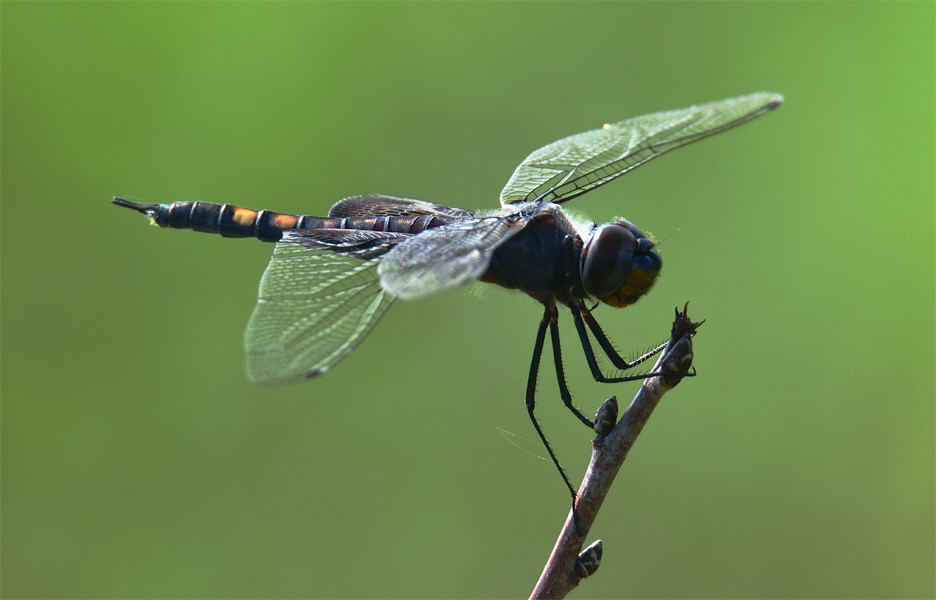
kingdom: Animalia
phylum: Arthropoda
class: Insecta
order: Odonata
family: Libellulidae
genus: Tramea
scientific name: Tramea lacerata
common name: Black saddlebags
